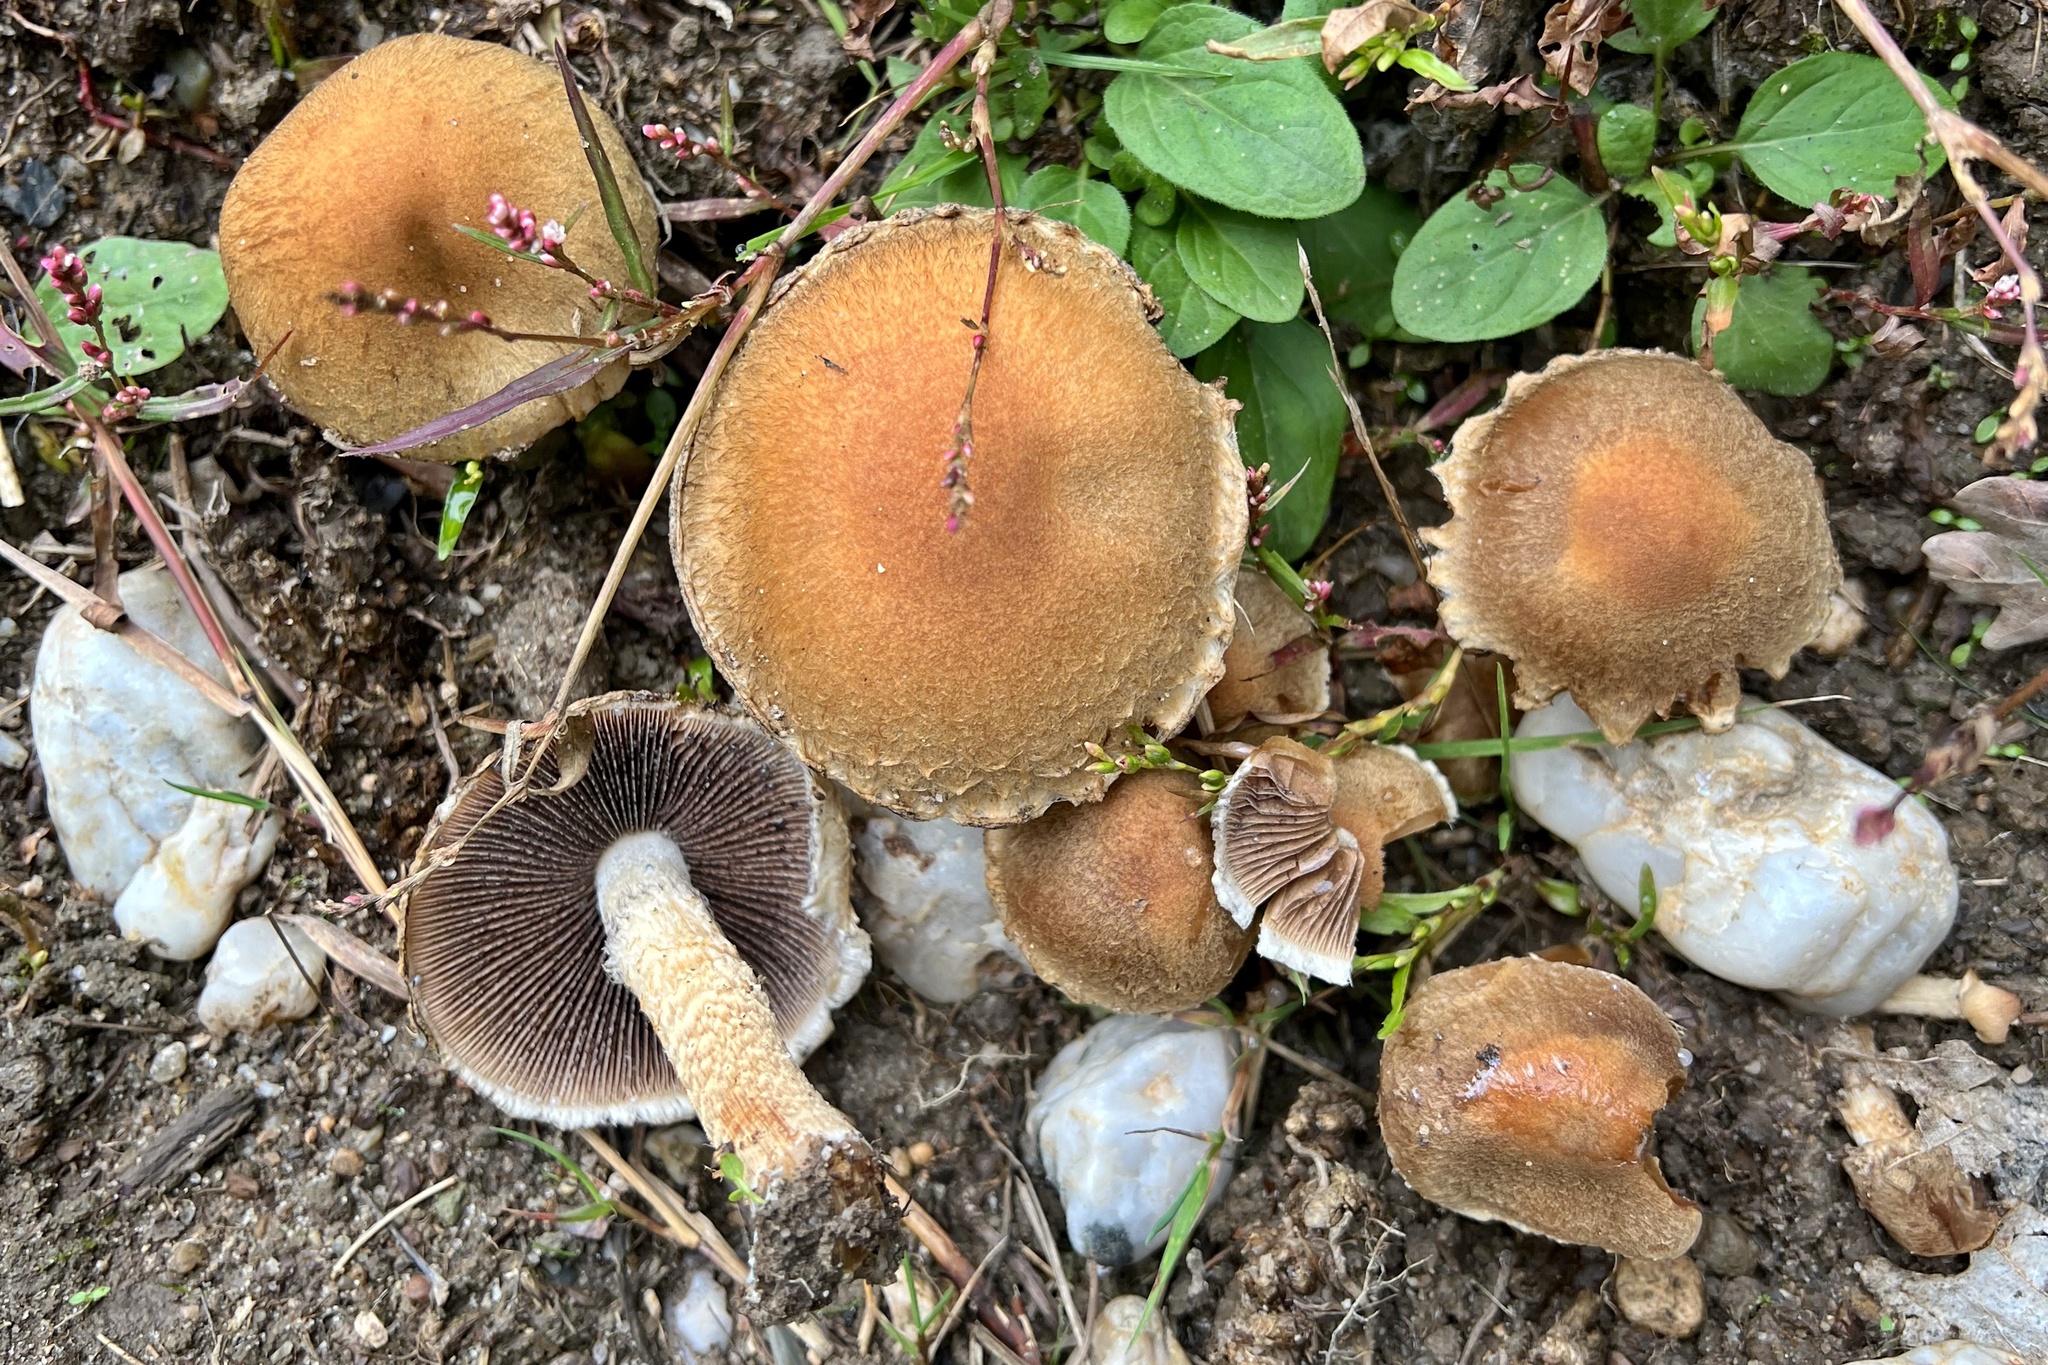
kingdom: Fungi
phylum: Basidiomycota
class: Agaricomycetes
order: Agaricales
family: Psathyrellaceae
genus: Lacrymaria
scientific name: Lacrymaria lacrymabunda
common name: Weeping widow
